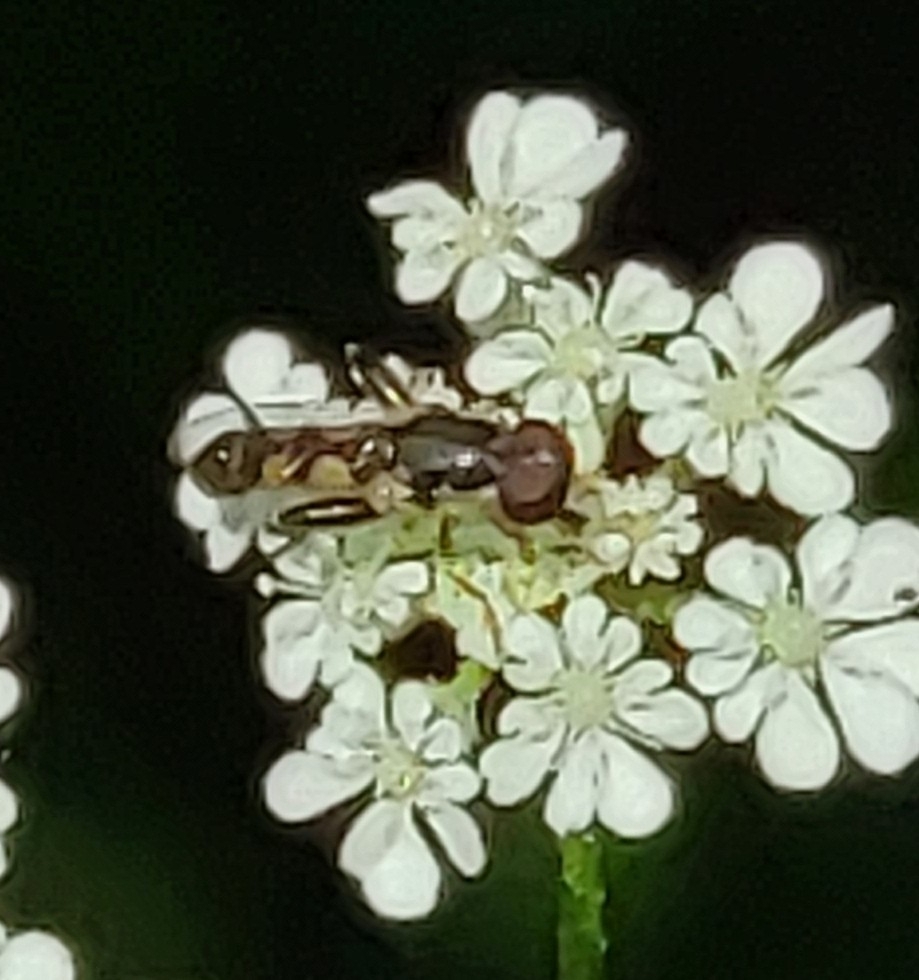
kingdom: Animalia
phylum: Arthropoda
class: Insecta
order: Diptera
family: Syrphidae
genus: Syritta
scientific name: Syritta pipiens
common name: Hover fly
